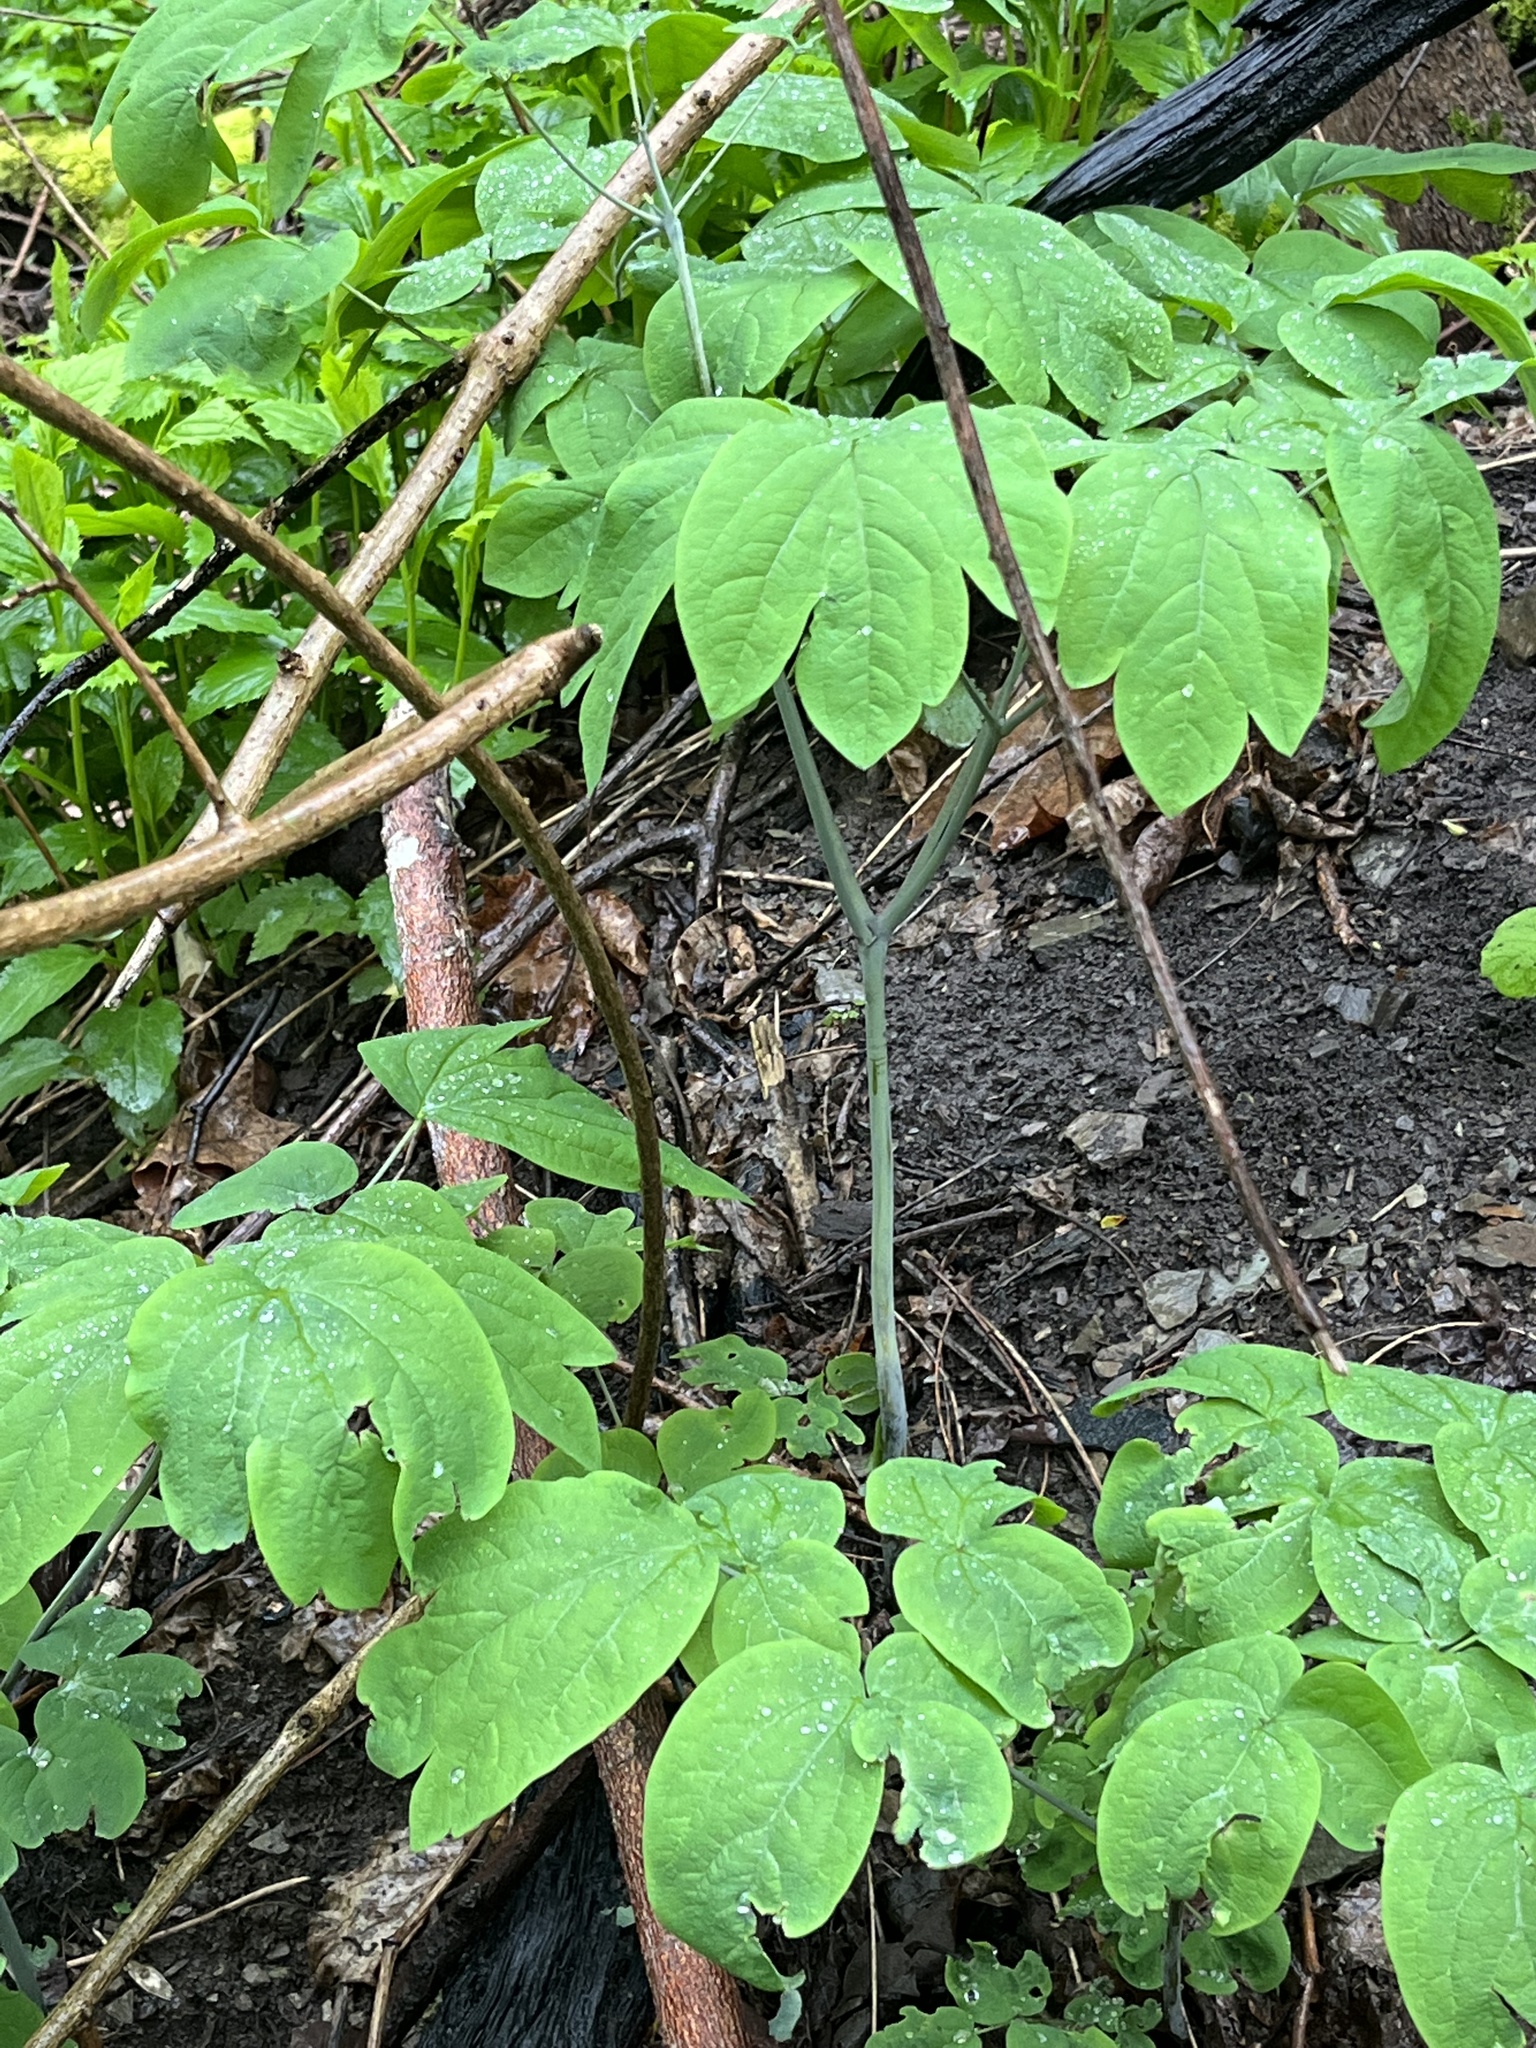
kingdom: Plantae
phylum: Tracheophyta
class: Magnoliopsida
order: Ranunculales
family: Berberidaceae
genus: Caulophyllum
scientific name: Caulophyllum thalictroides
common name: Blue cohosh
